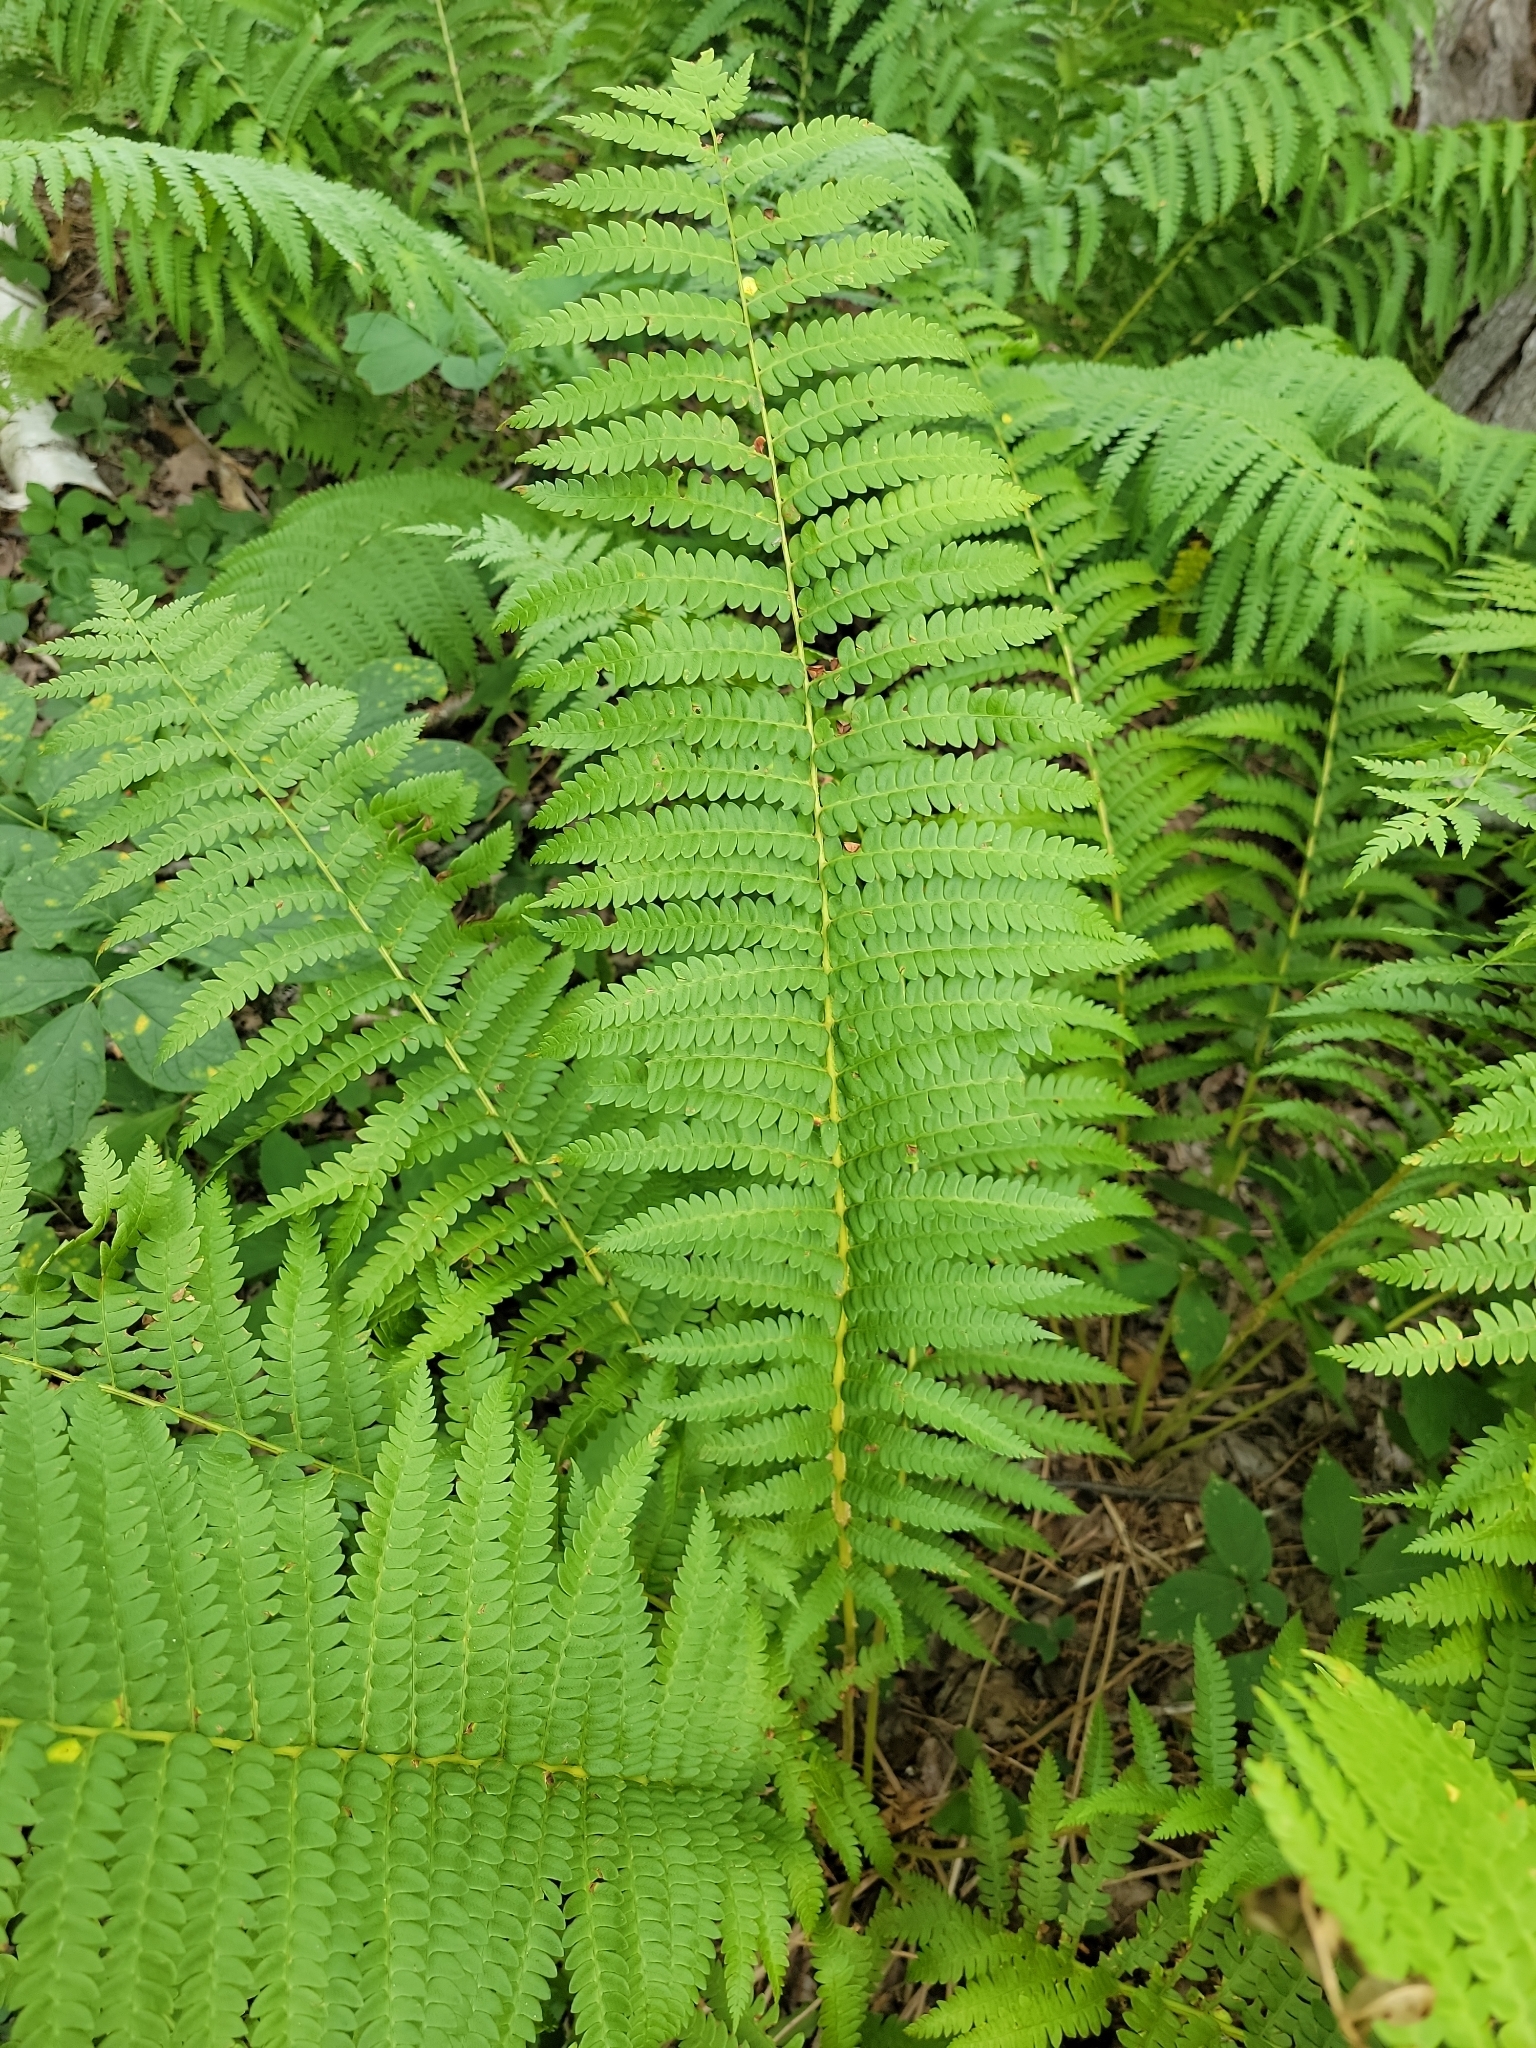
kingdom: Plantae
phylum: Tracheophyta
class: Polypodiopsida
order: Osmundales
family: Osmundaceae
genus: Osmundastrum
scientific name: Osmundastrum cinnamomeum
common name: Cinnamon fern
